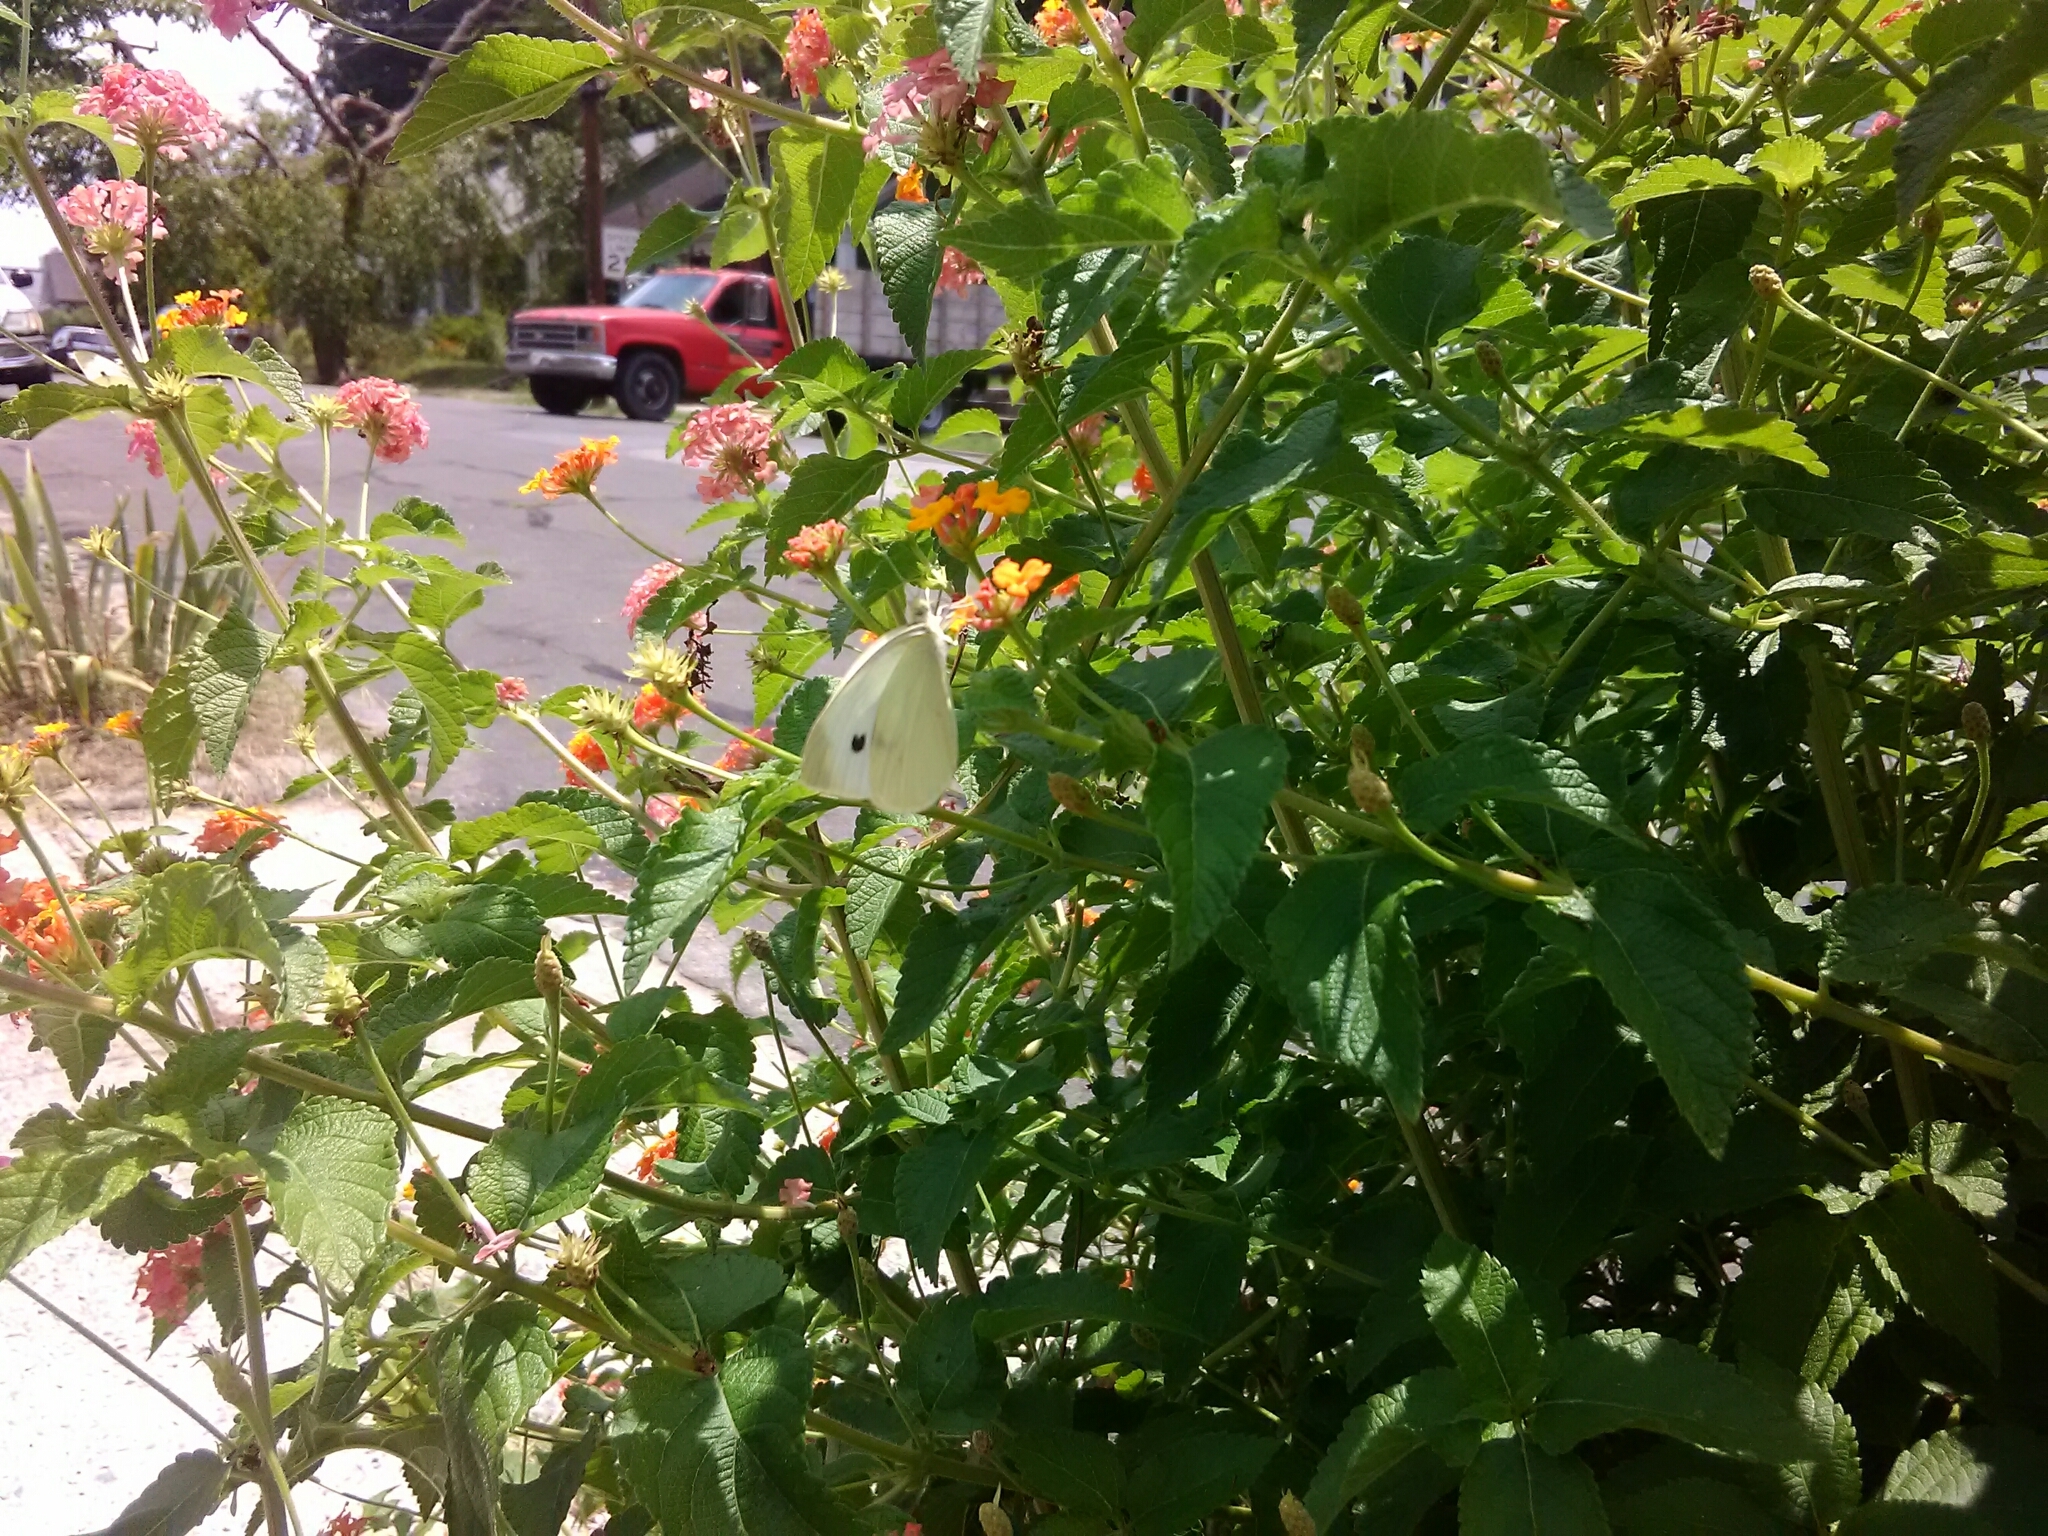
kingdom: Animalia
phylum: Arthropoda
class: Insecta
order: Lepidoptera
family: Pieridae
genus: Pieris
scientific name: Pieris rapae
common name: Small white
